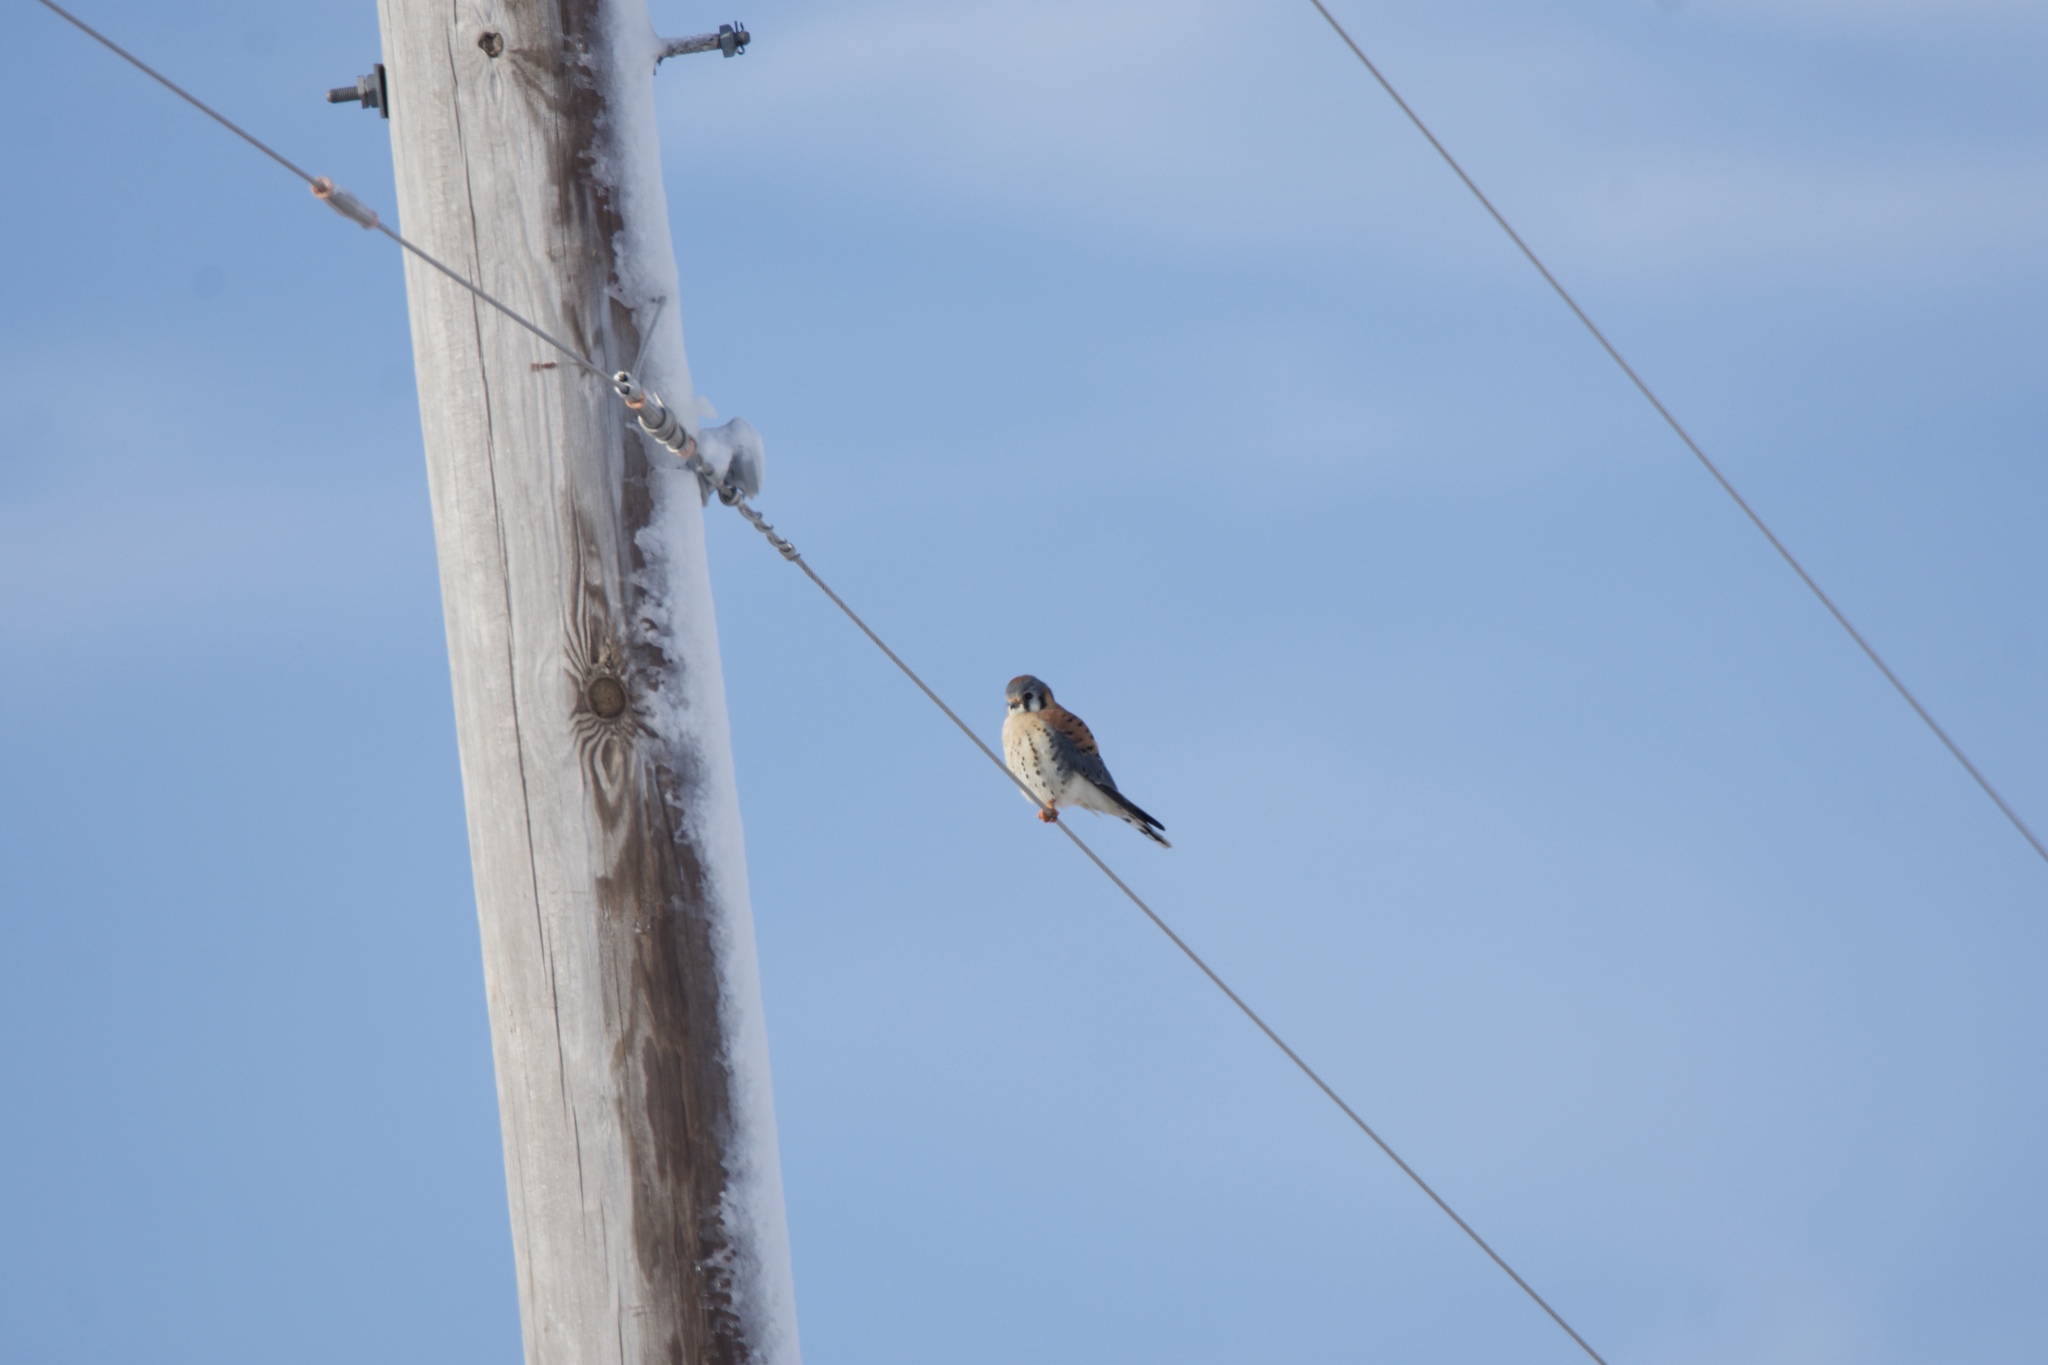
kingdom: Animalia
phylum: Chordata
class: Aves
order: Falconiformes
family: Falconidae
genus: Falco
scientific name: Falco sparverius
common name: American kestrel
